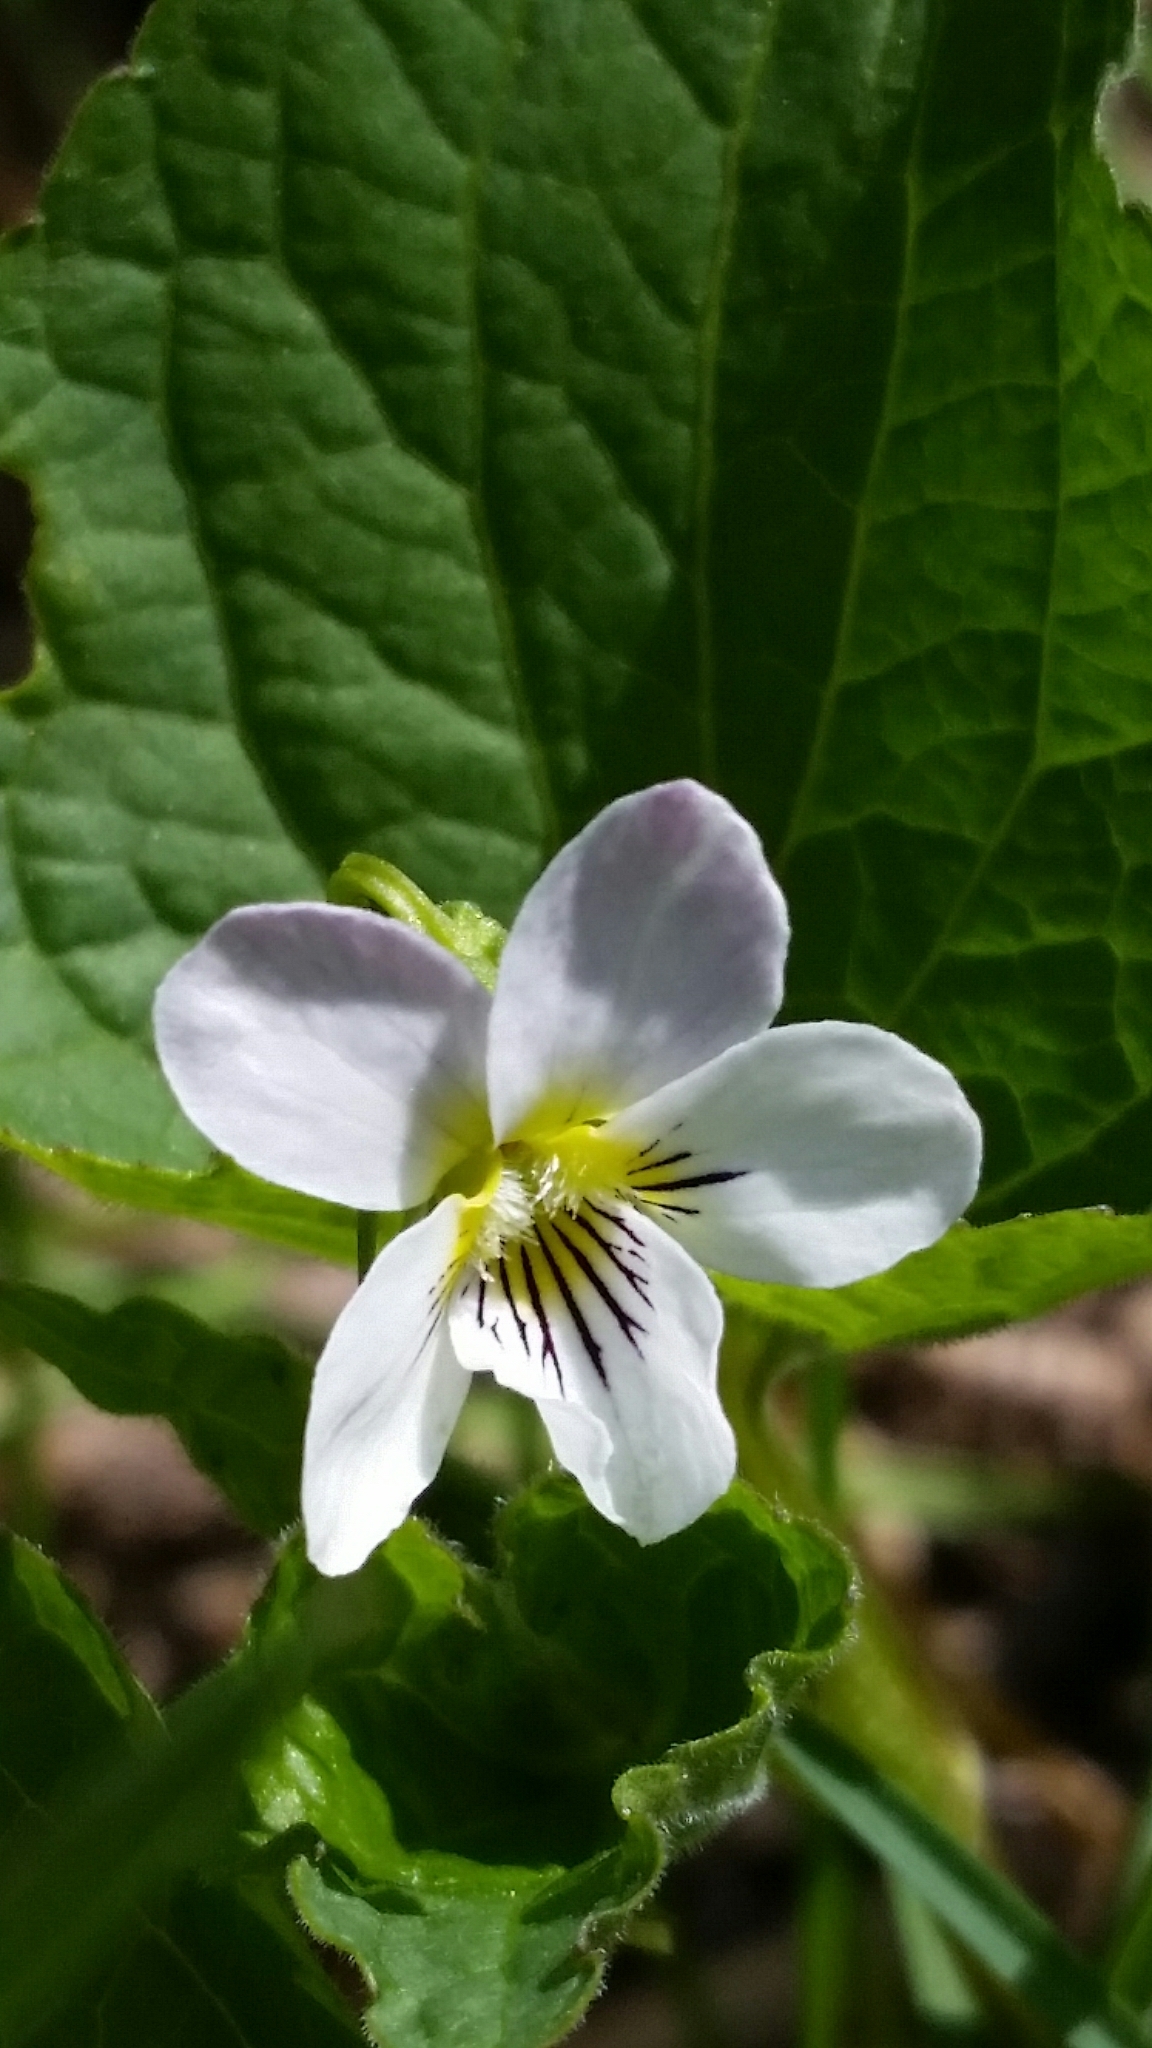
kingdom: Plantae
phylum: Tracheophyta
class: Magnoliopsida
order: Malpighiales
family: Violaceae
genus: Viola
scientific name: Viola canadensis
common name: Canada violet
